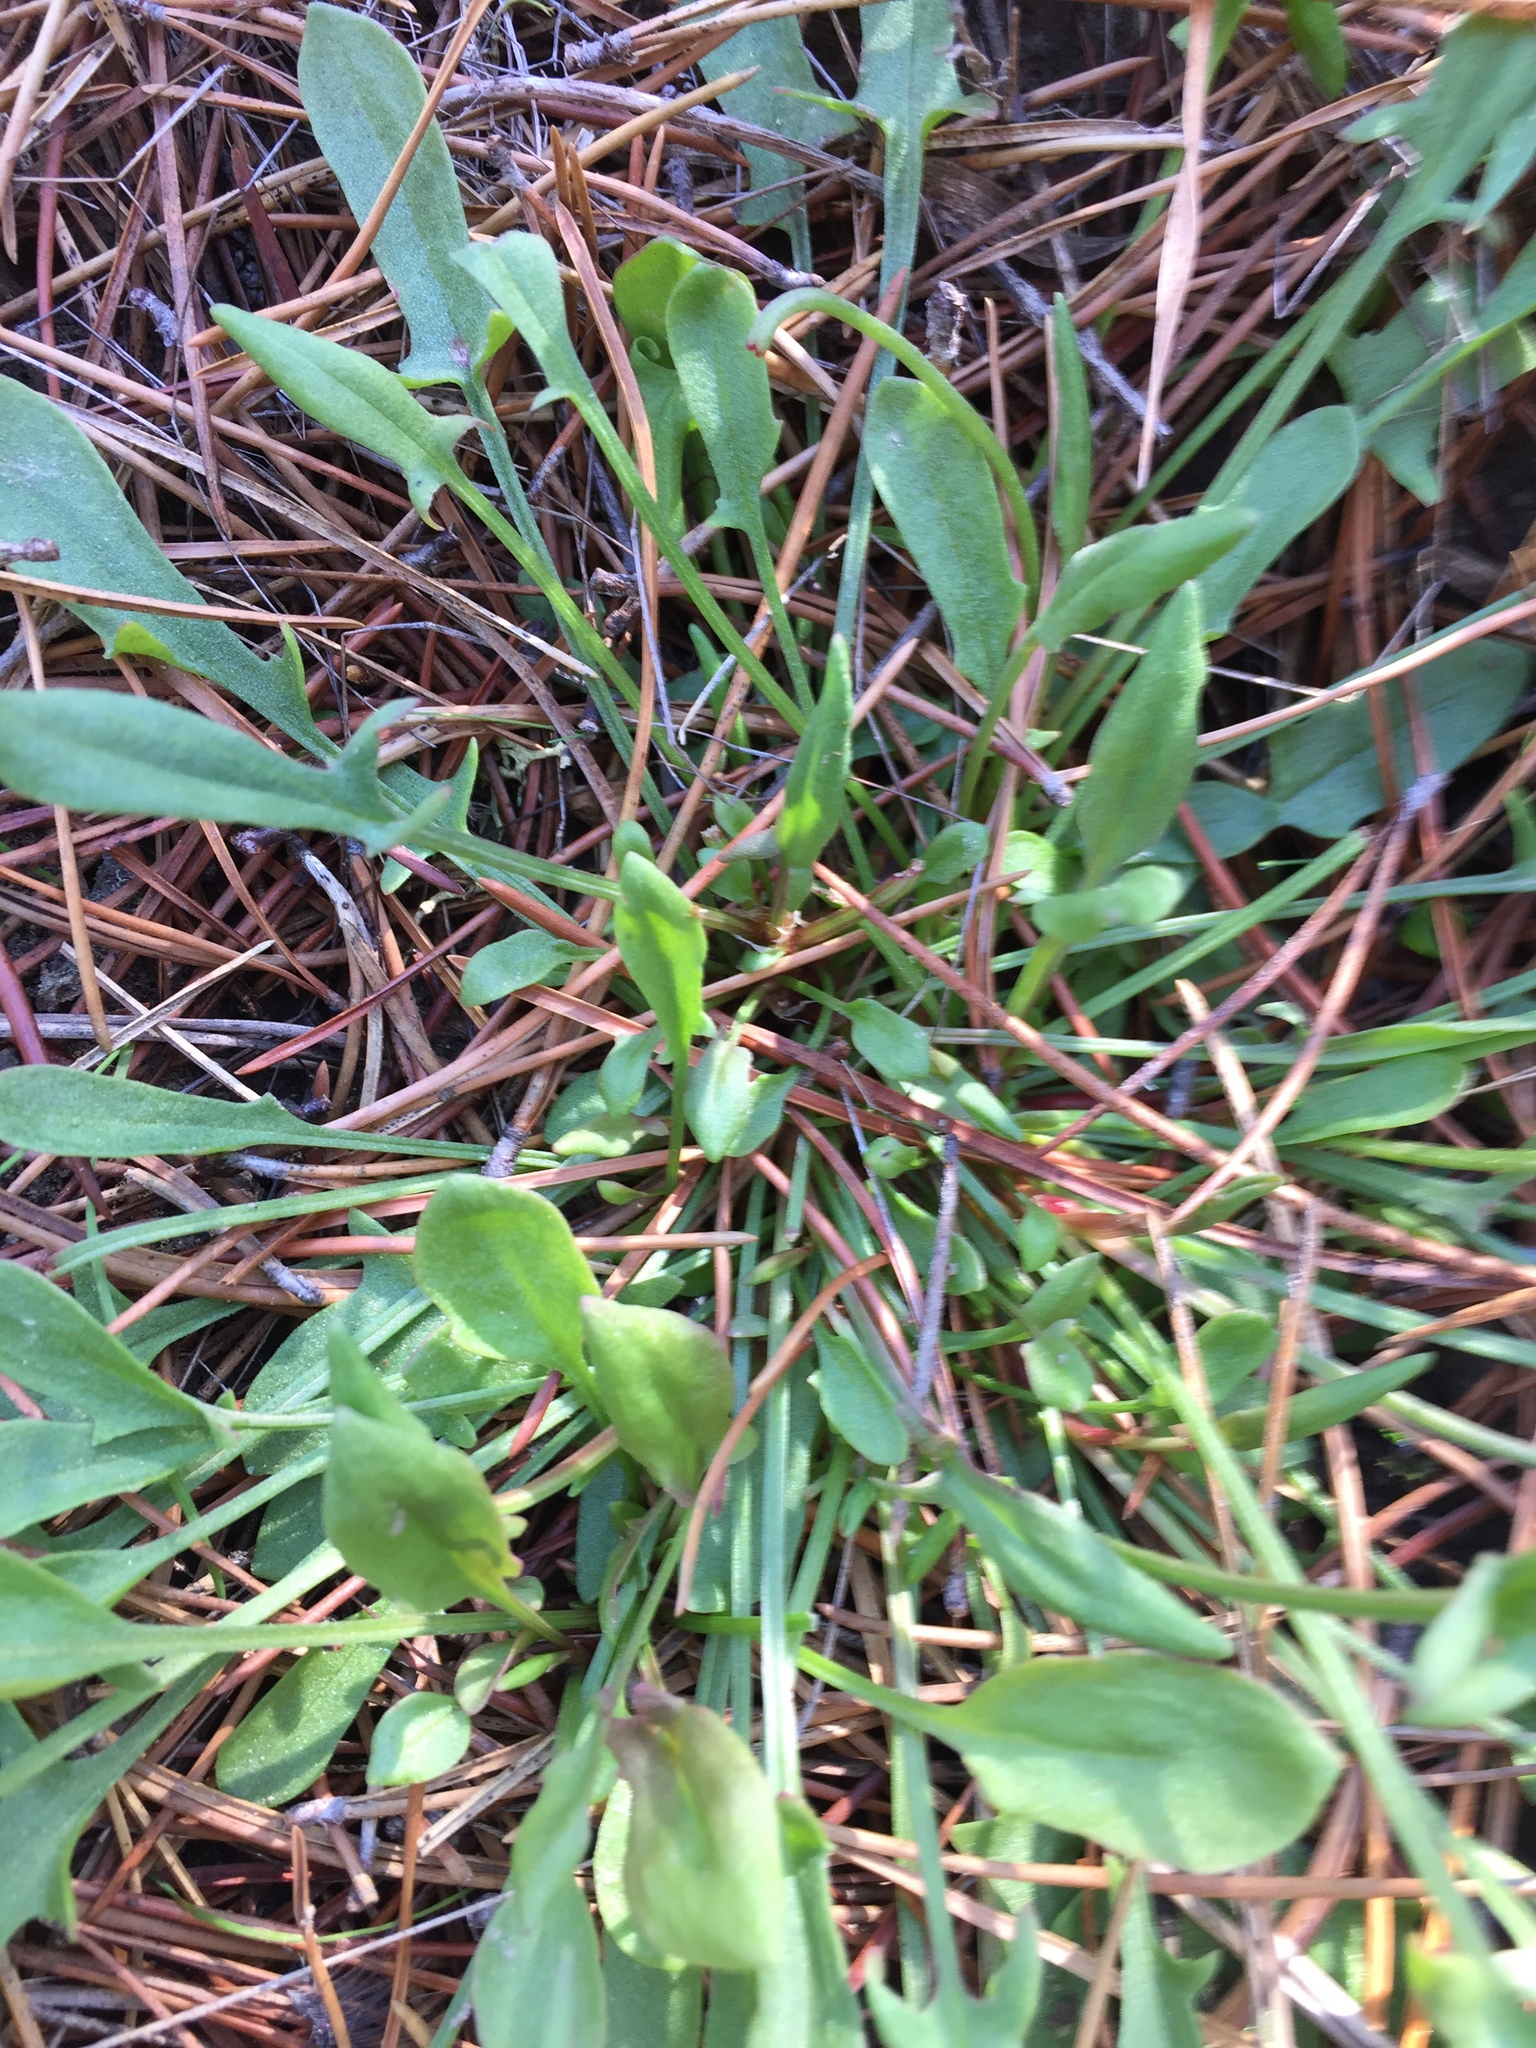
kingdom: Plantae
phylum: Tracheophyta
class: Magnoliopsida
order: Caryophyllales
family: Polygonaceae
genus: Rumex
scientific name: Rumex acetosella
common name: Common sheep sorrel
